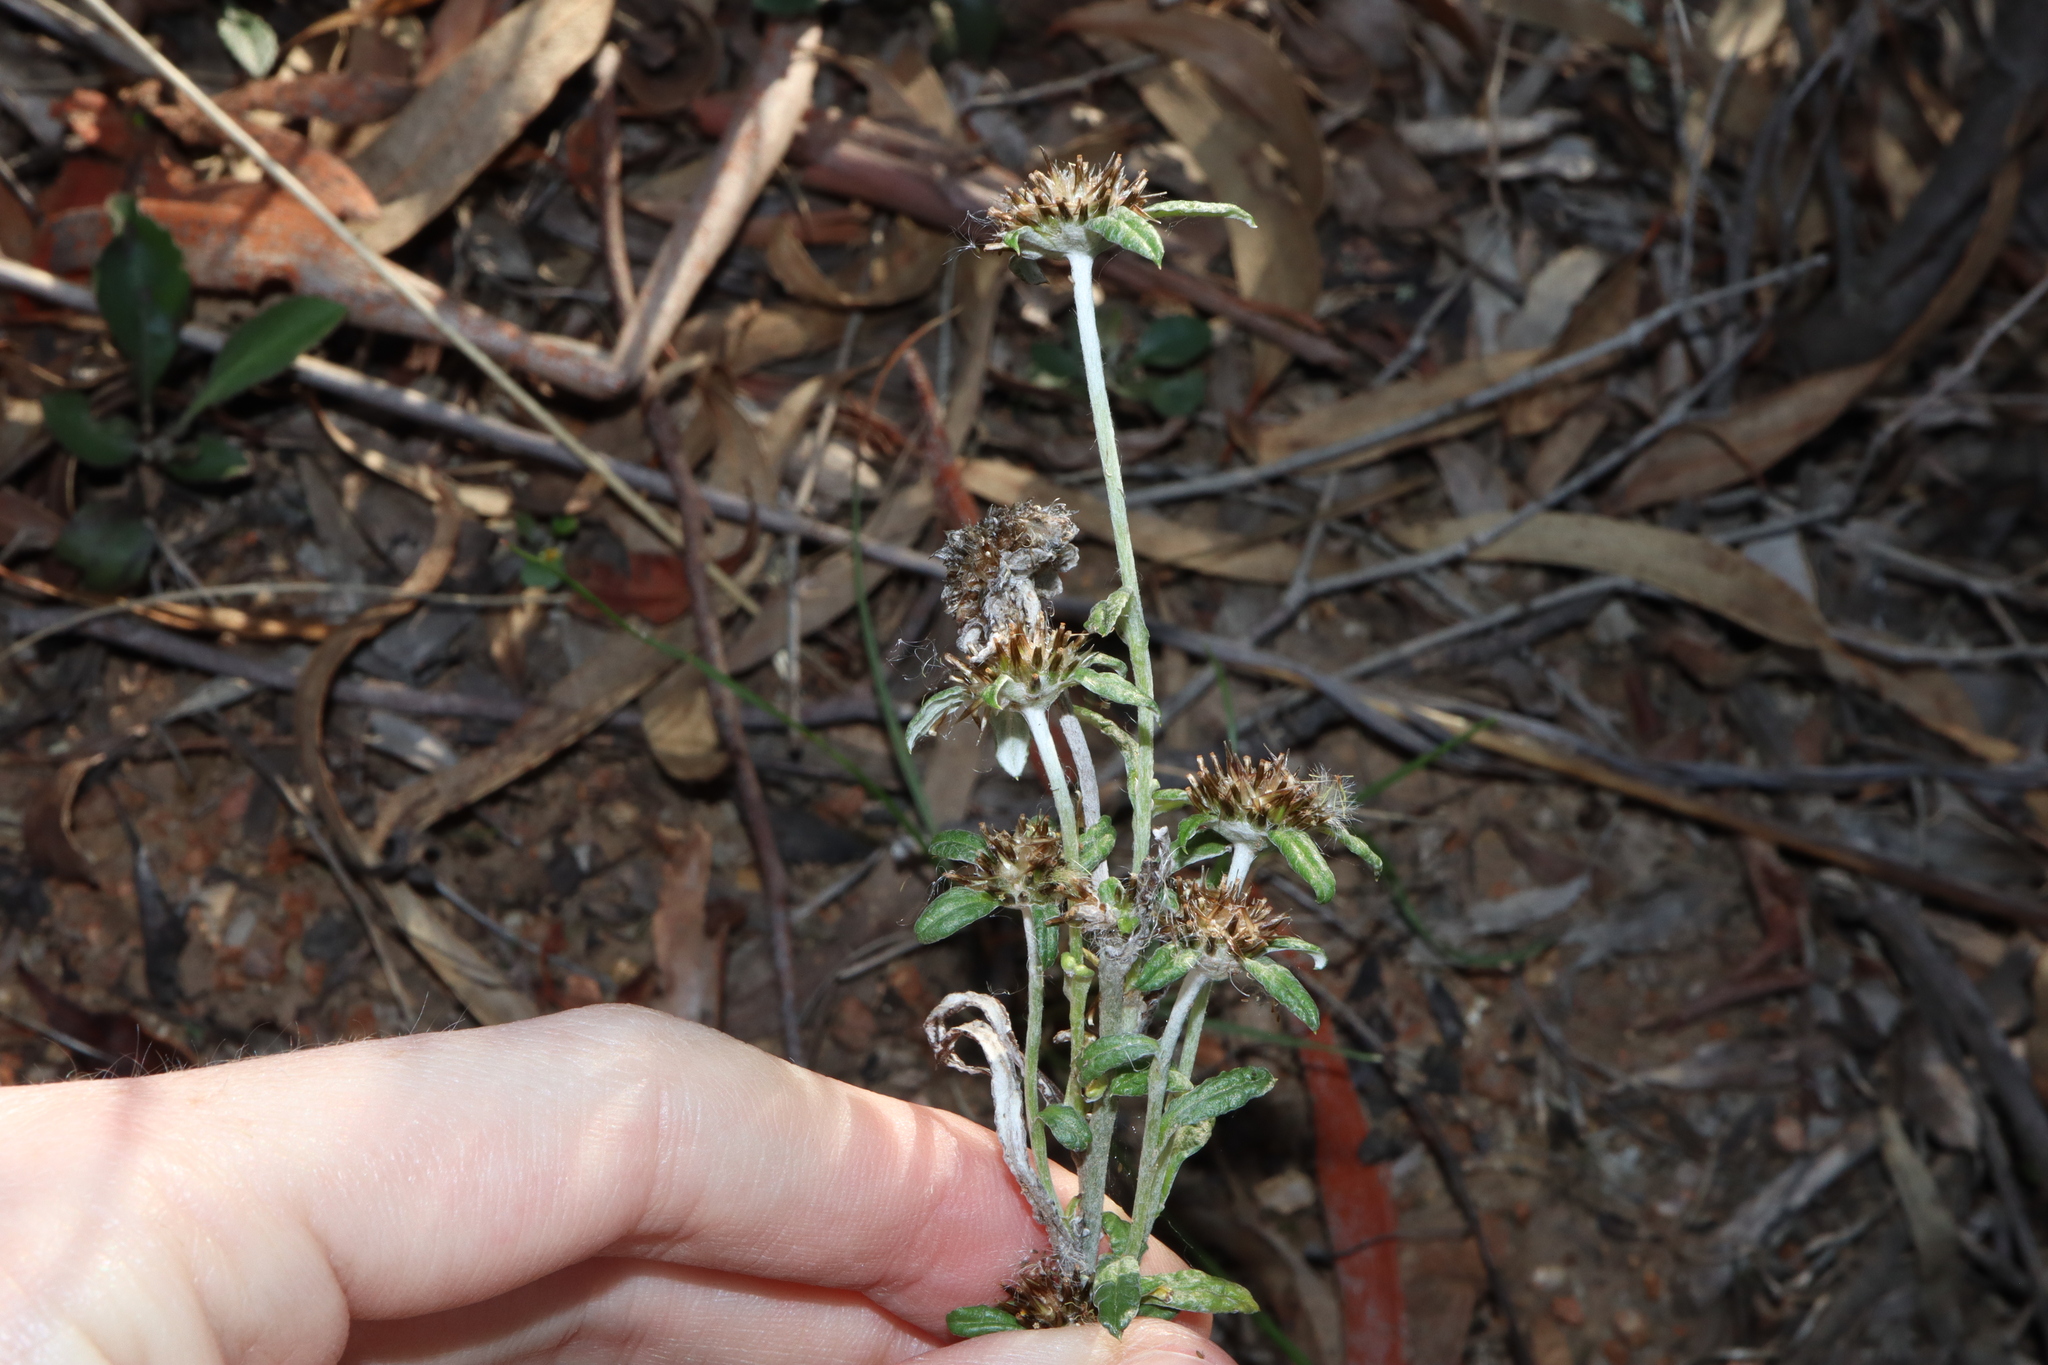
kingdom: Plantae
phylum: Tracheophyta
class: Magnoliopsida
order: Asterales
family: Asteraceae
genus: Euchiton
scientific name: Euchiton sphaericus
